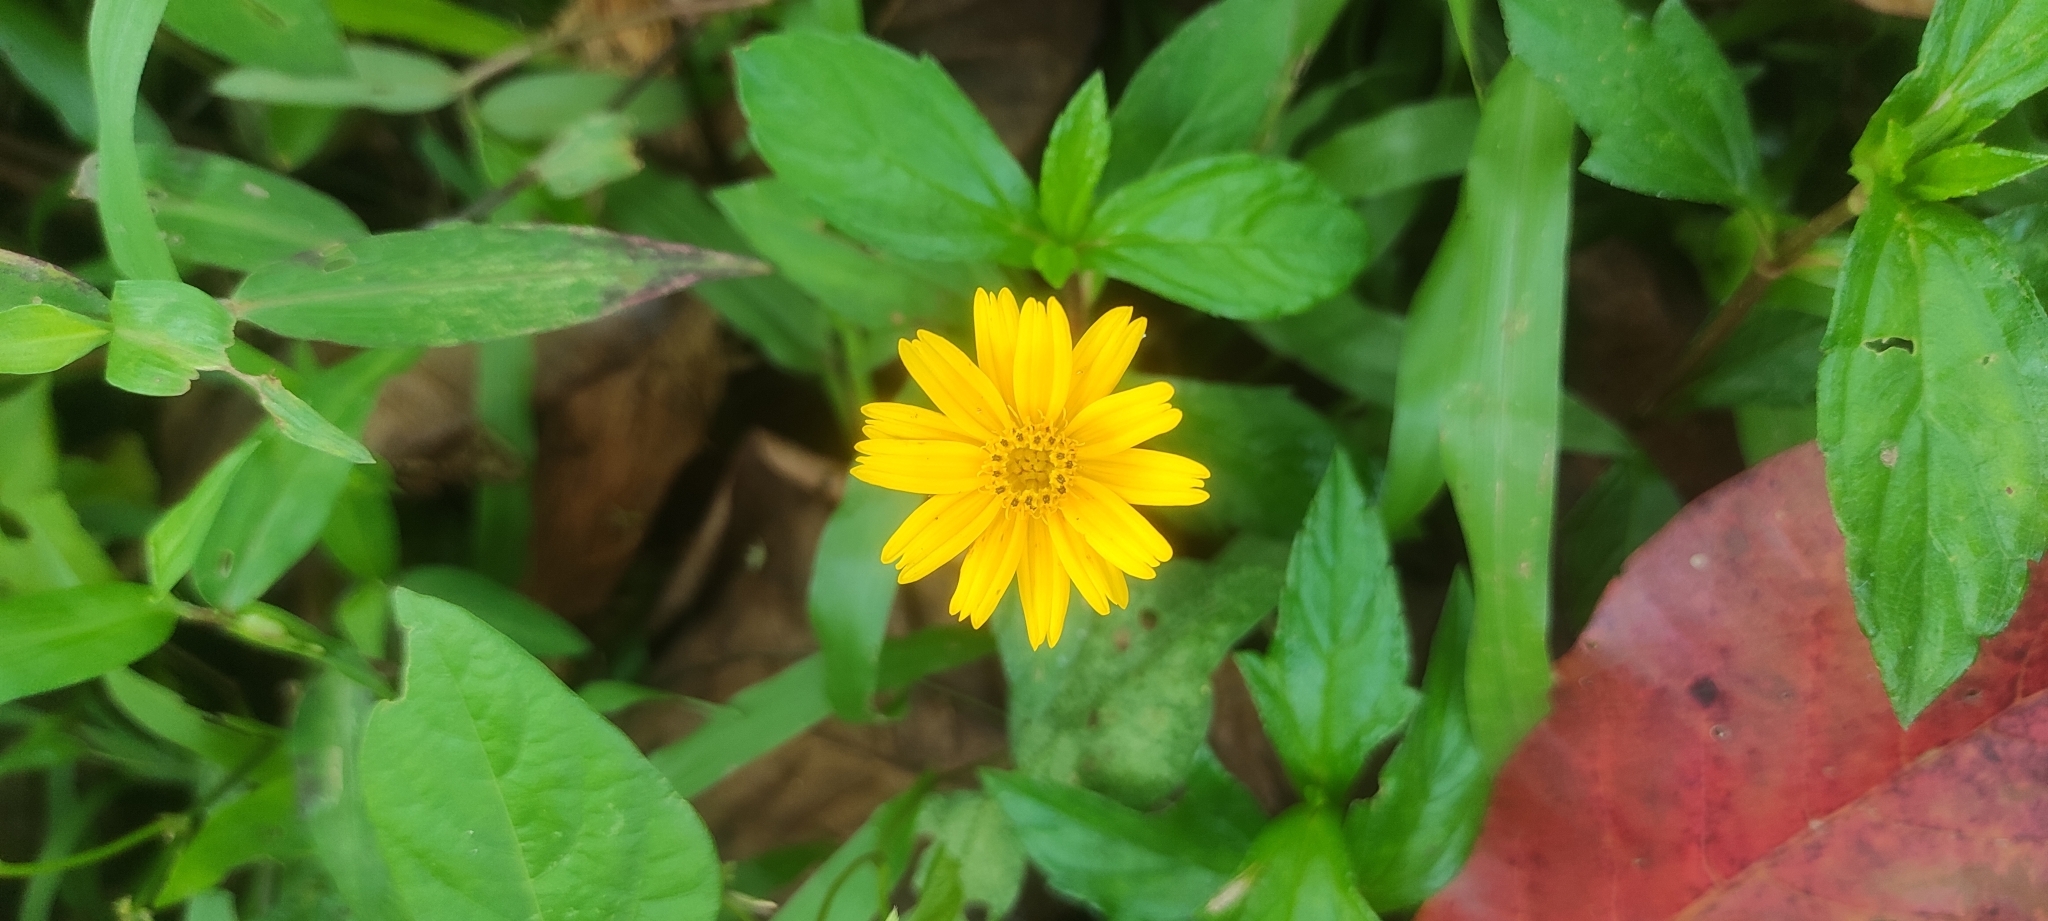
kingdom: Plantae
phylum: Tracheophyta
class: Magnoliopsida
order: Asterales
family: Asteraceae
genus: Sphagneticola
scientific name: Sphagneticola trilobata
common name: Bay biscayne creeping-oxeye
